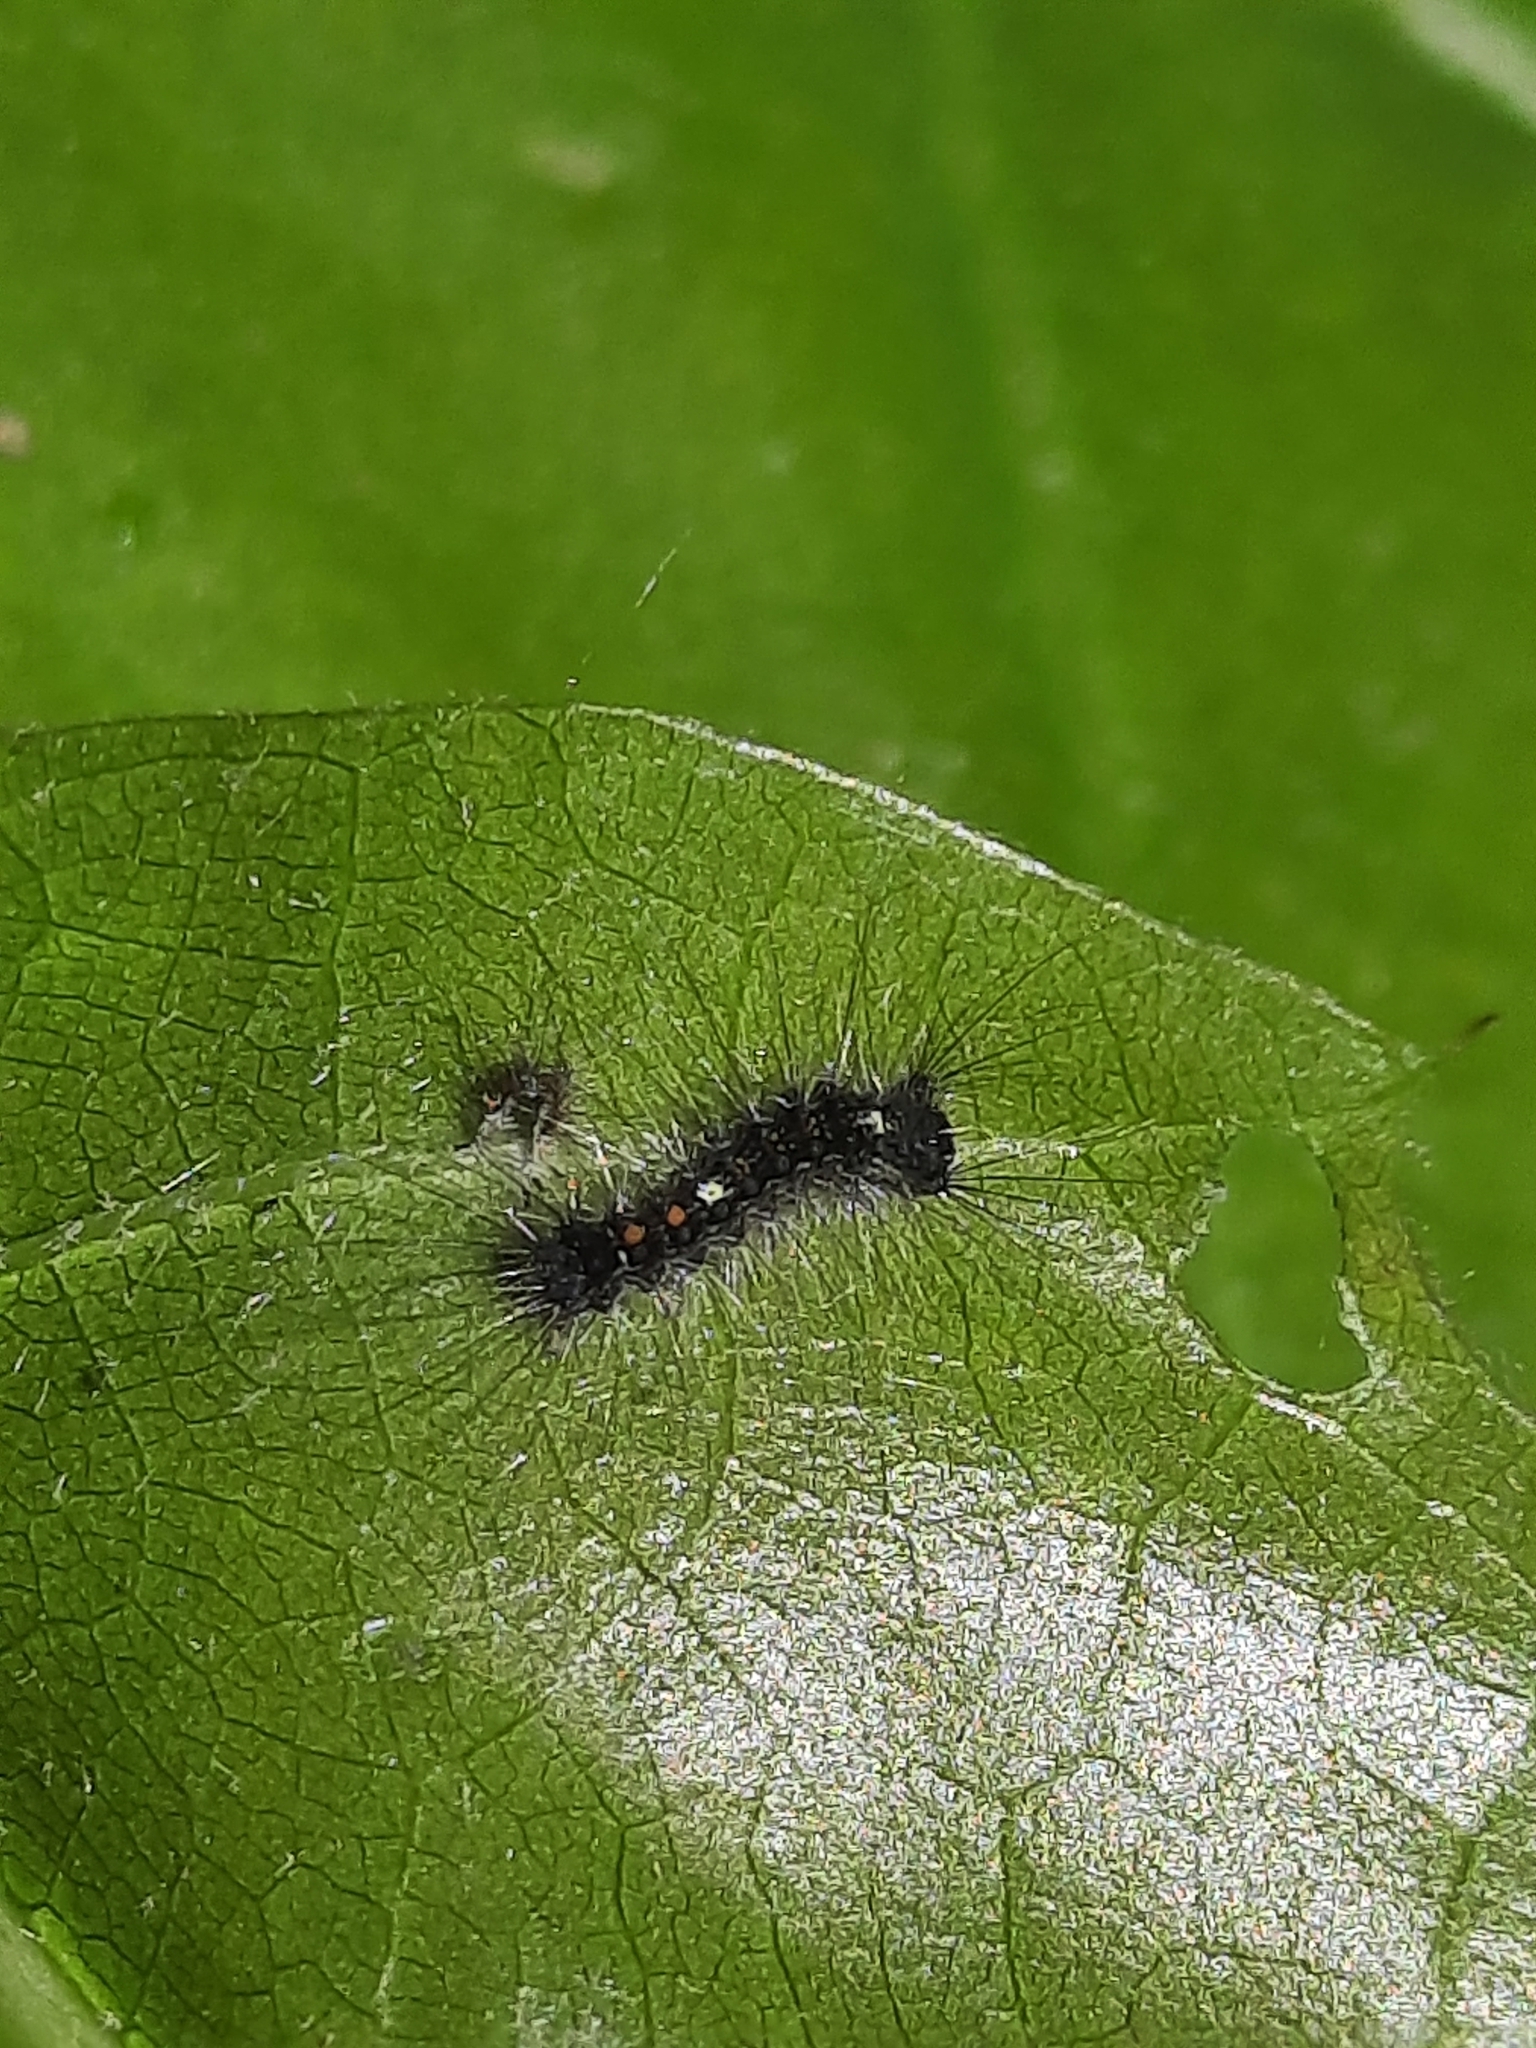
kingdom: Animalia
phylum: Arthropoda
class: Insecta
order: Lepidoptera
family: Erebidae
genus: Lymantria
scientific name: Lymantria dispar
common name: Gypsy moth
